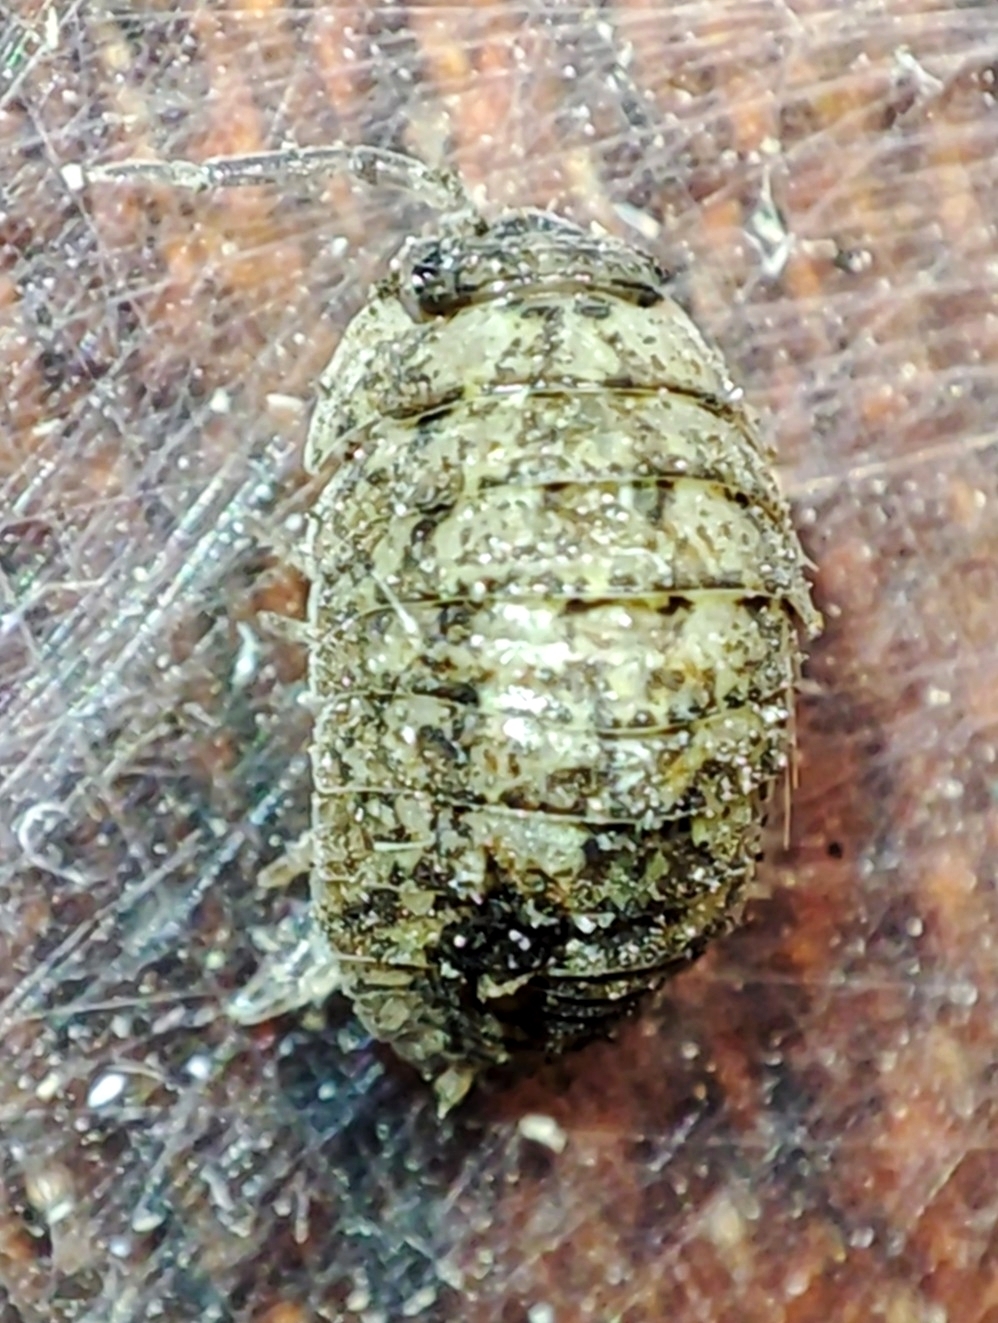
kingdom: Animalia
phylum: Arthropoda
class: Malacostraca
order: Isopoda
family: Trachelipodidae
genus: Porcellium
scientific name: Porcellium conspersum
